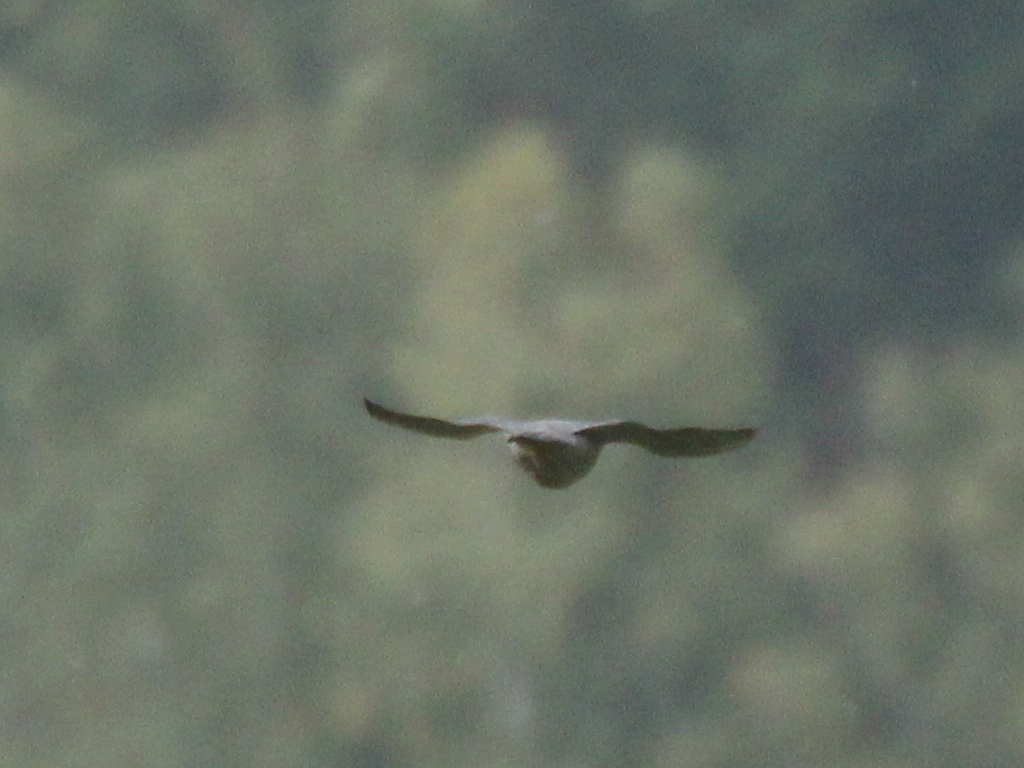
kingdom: Animalia
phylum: Chordata
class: Aves
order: Falconiformes
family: Falconidae
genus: Falco
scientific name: Falco peregrinus
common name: Peregrine falcon
